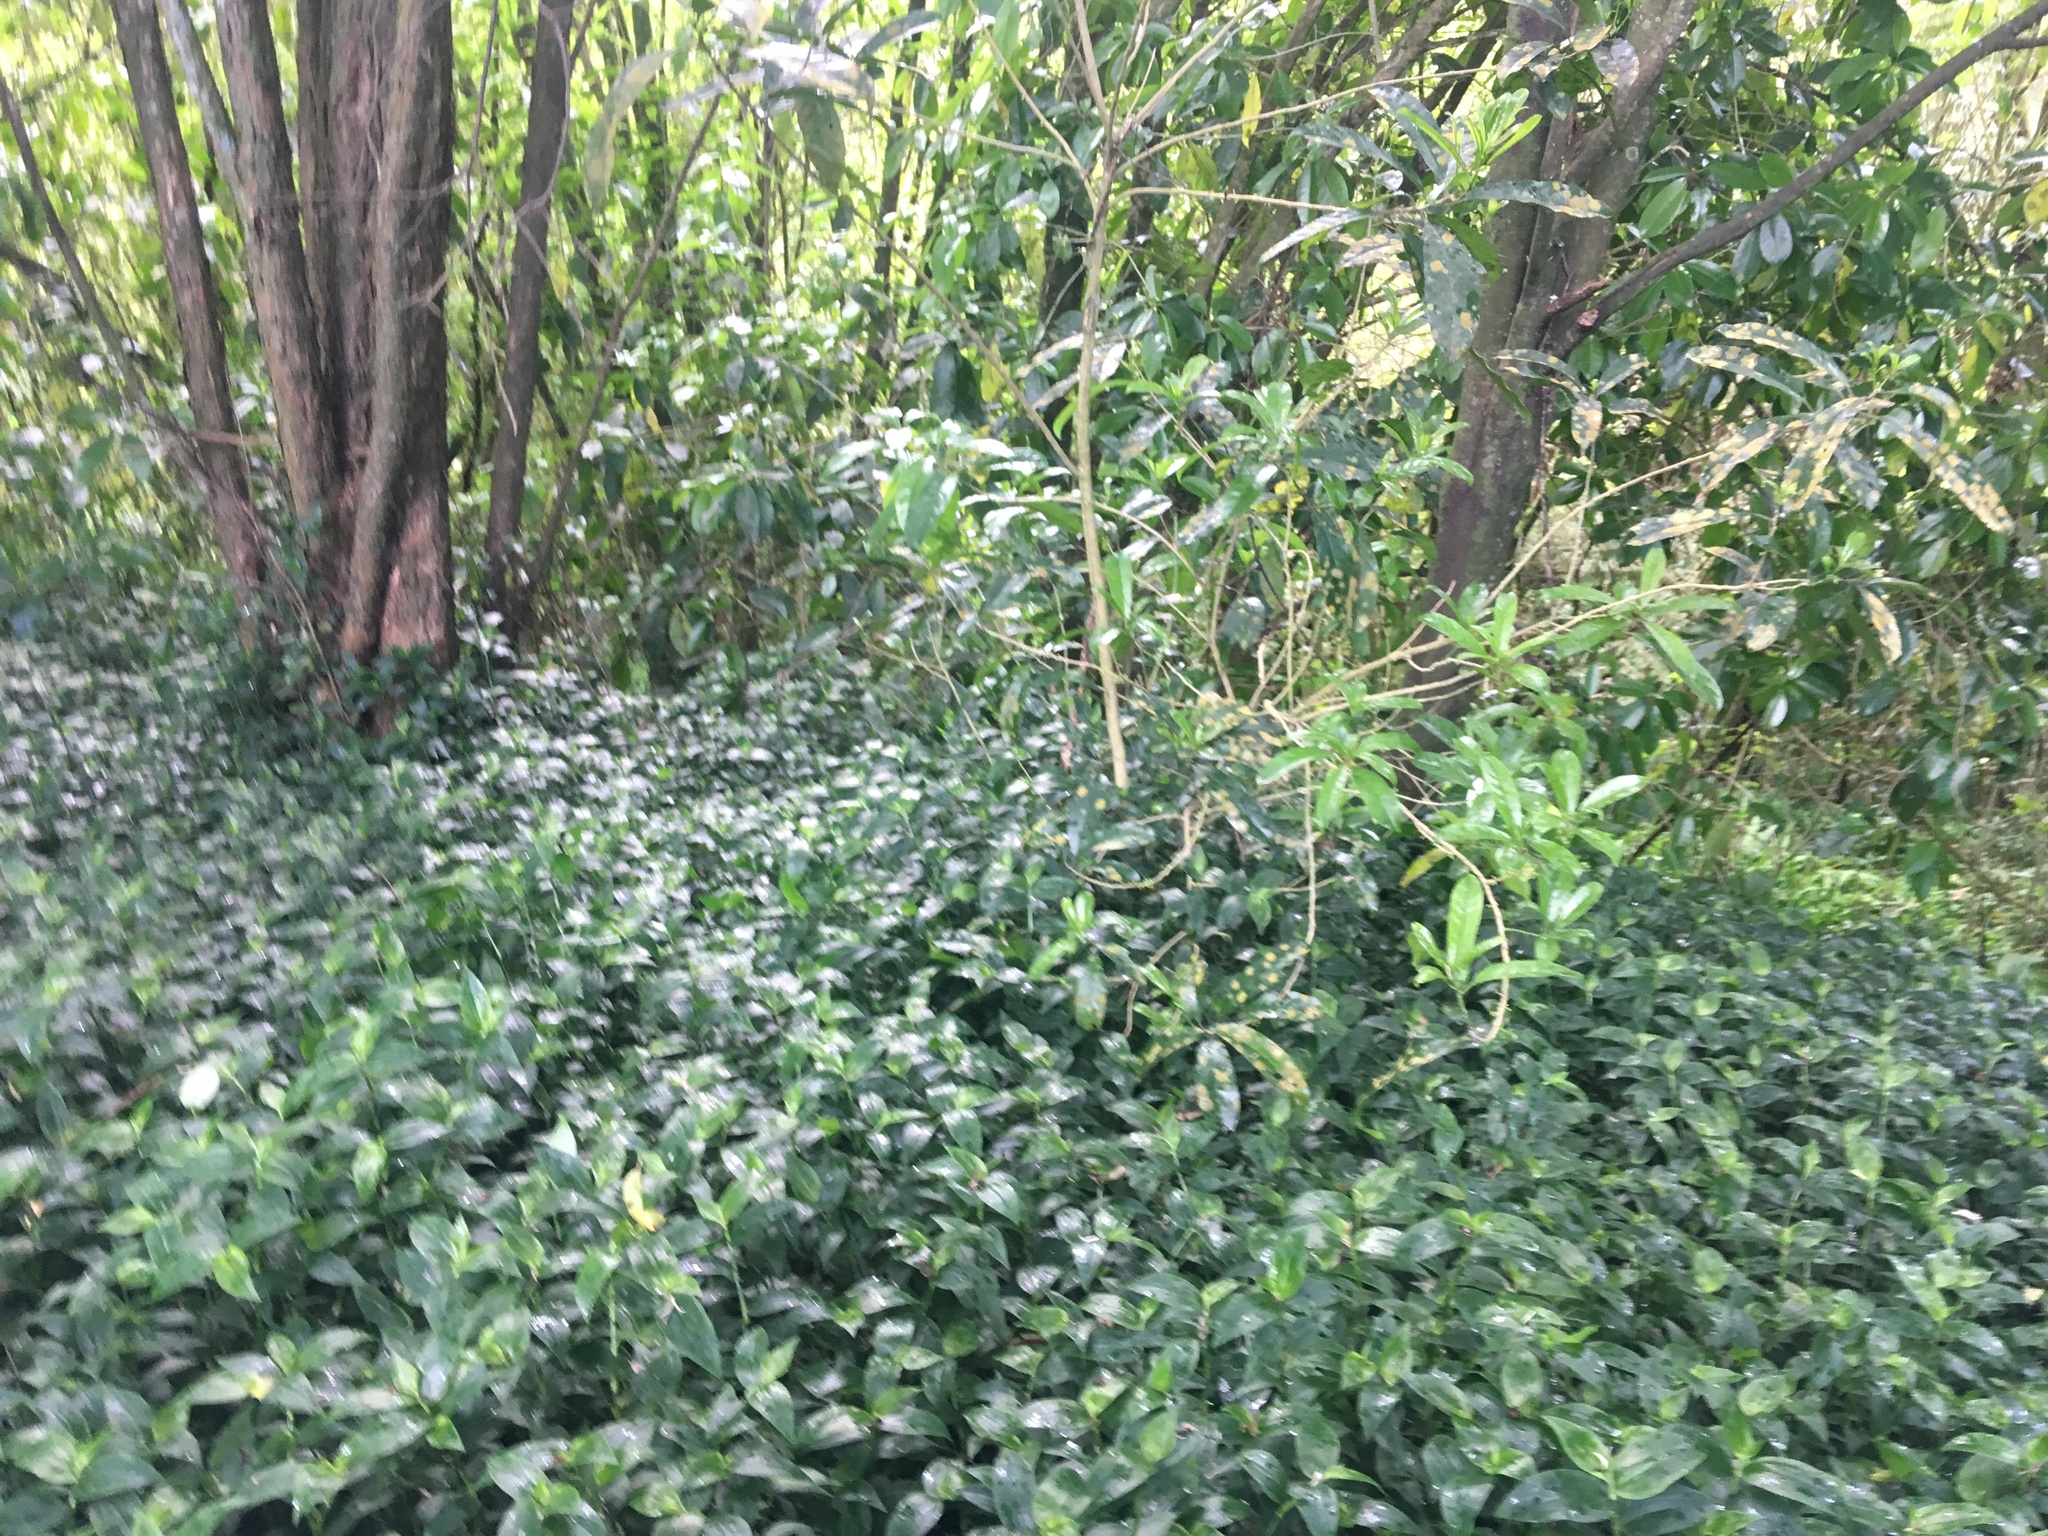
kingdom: Plantae
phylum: Tracheophyta
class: Liliopsida
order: Commelinales
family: Commelinaceae
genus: Tradescantia
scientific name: Tradescantia fluminensis
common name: Wandering-jew
